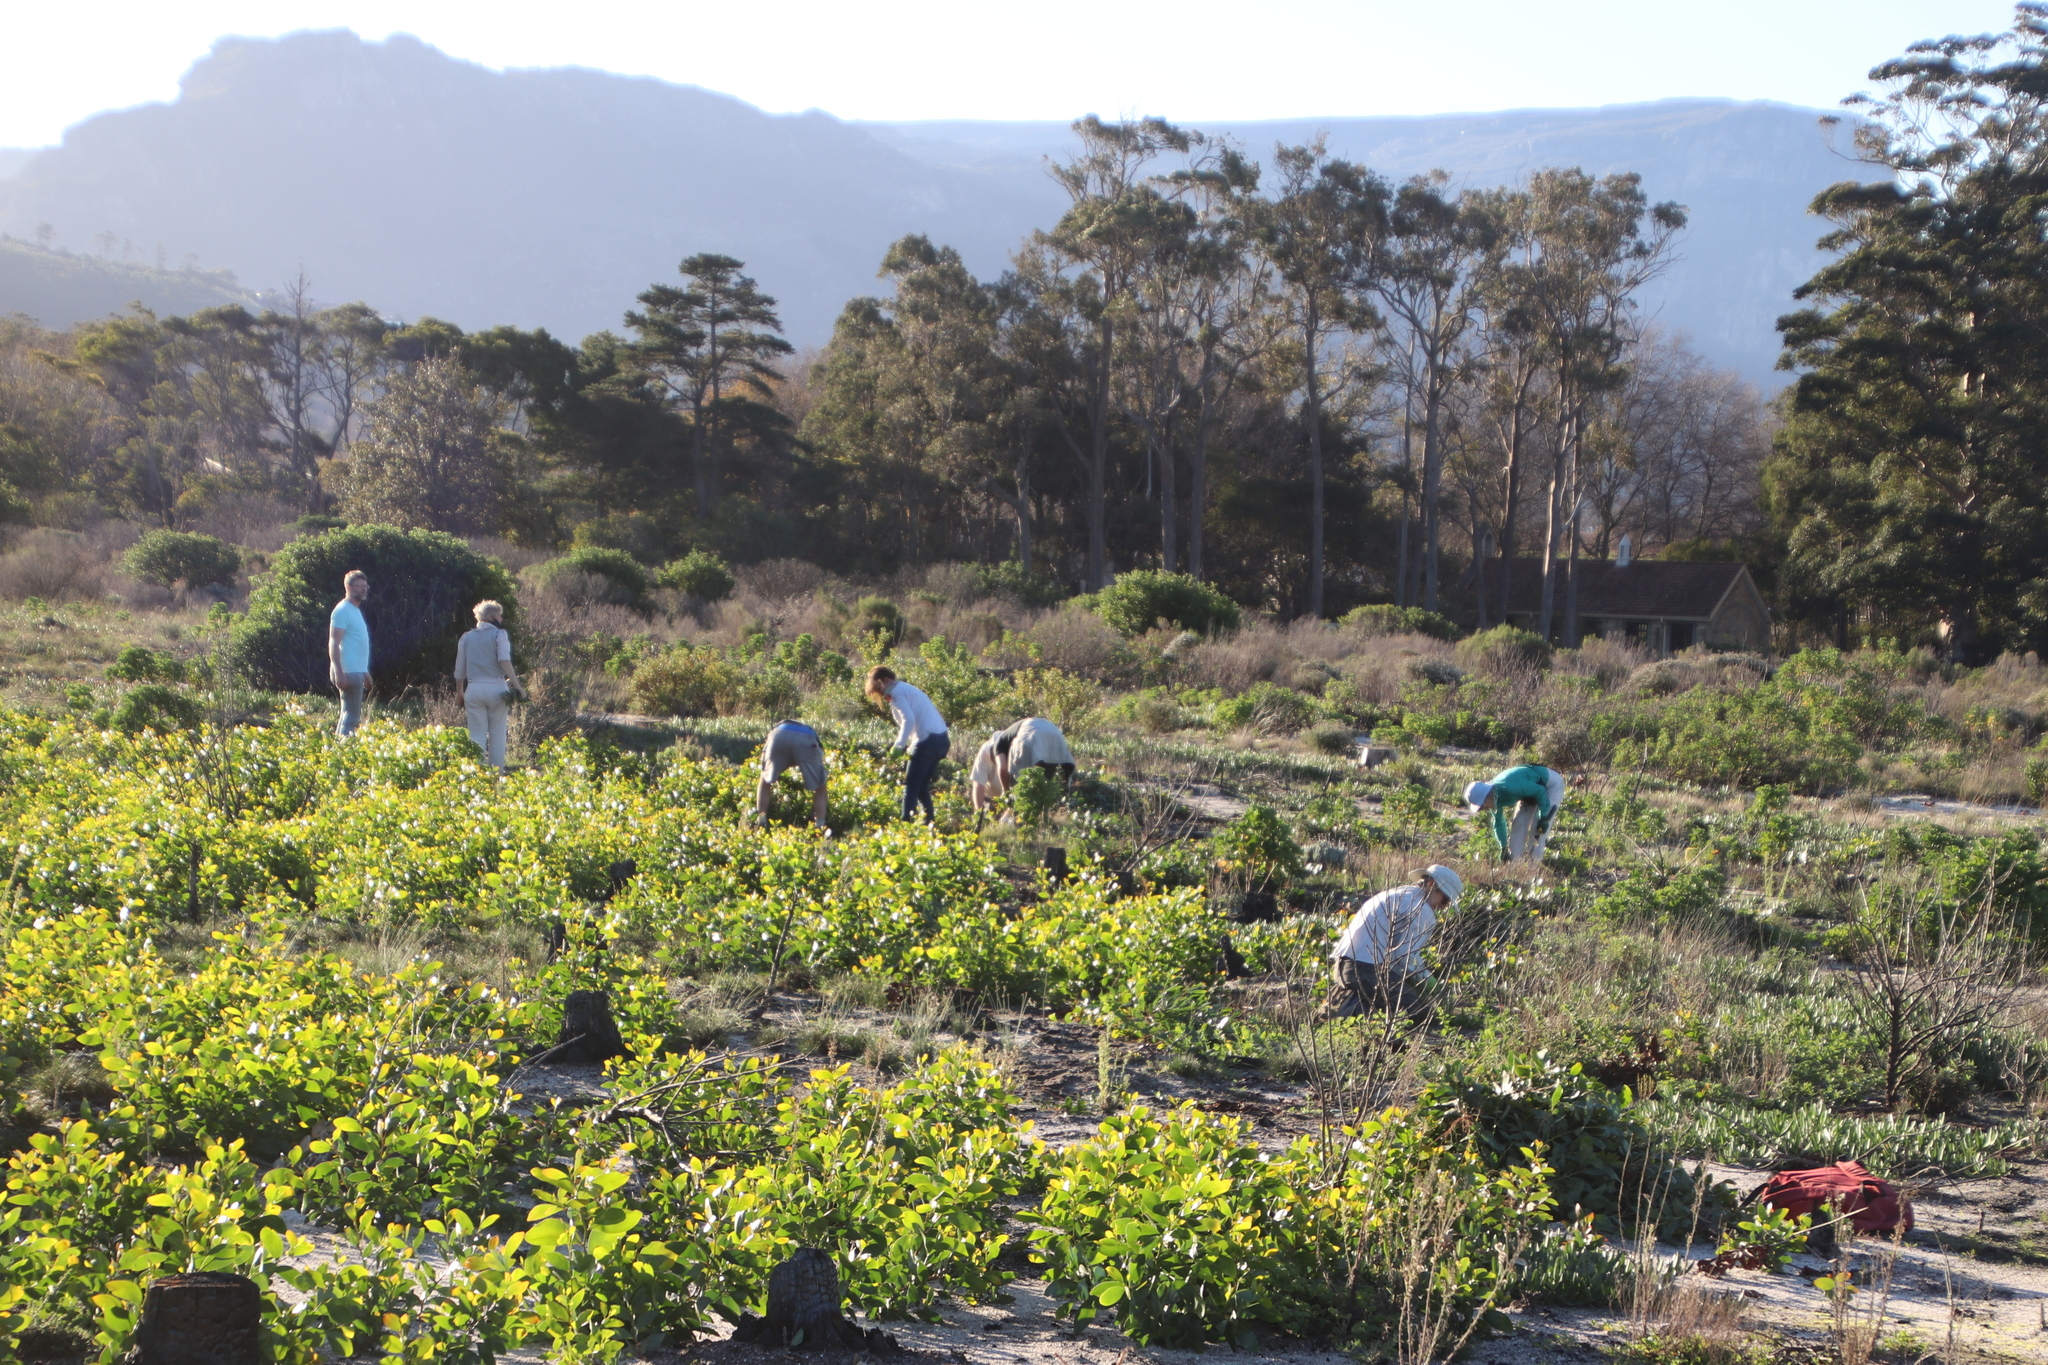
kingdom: Plantae
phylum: Tracheophyta
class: Magnoliopsida
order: Fabales
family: Fabaceae
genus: Acacia
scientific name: Acacia pycnantha
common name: Golden wattle
